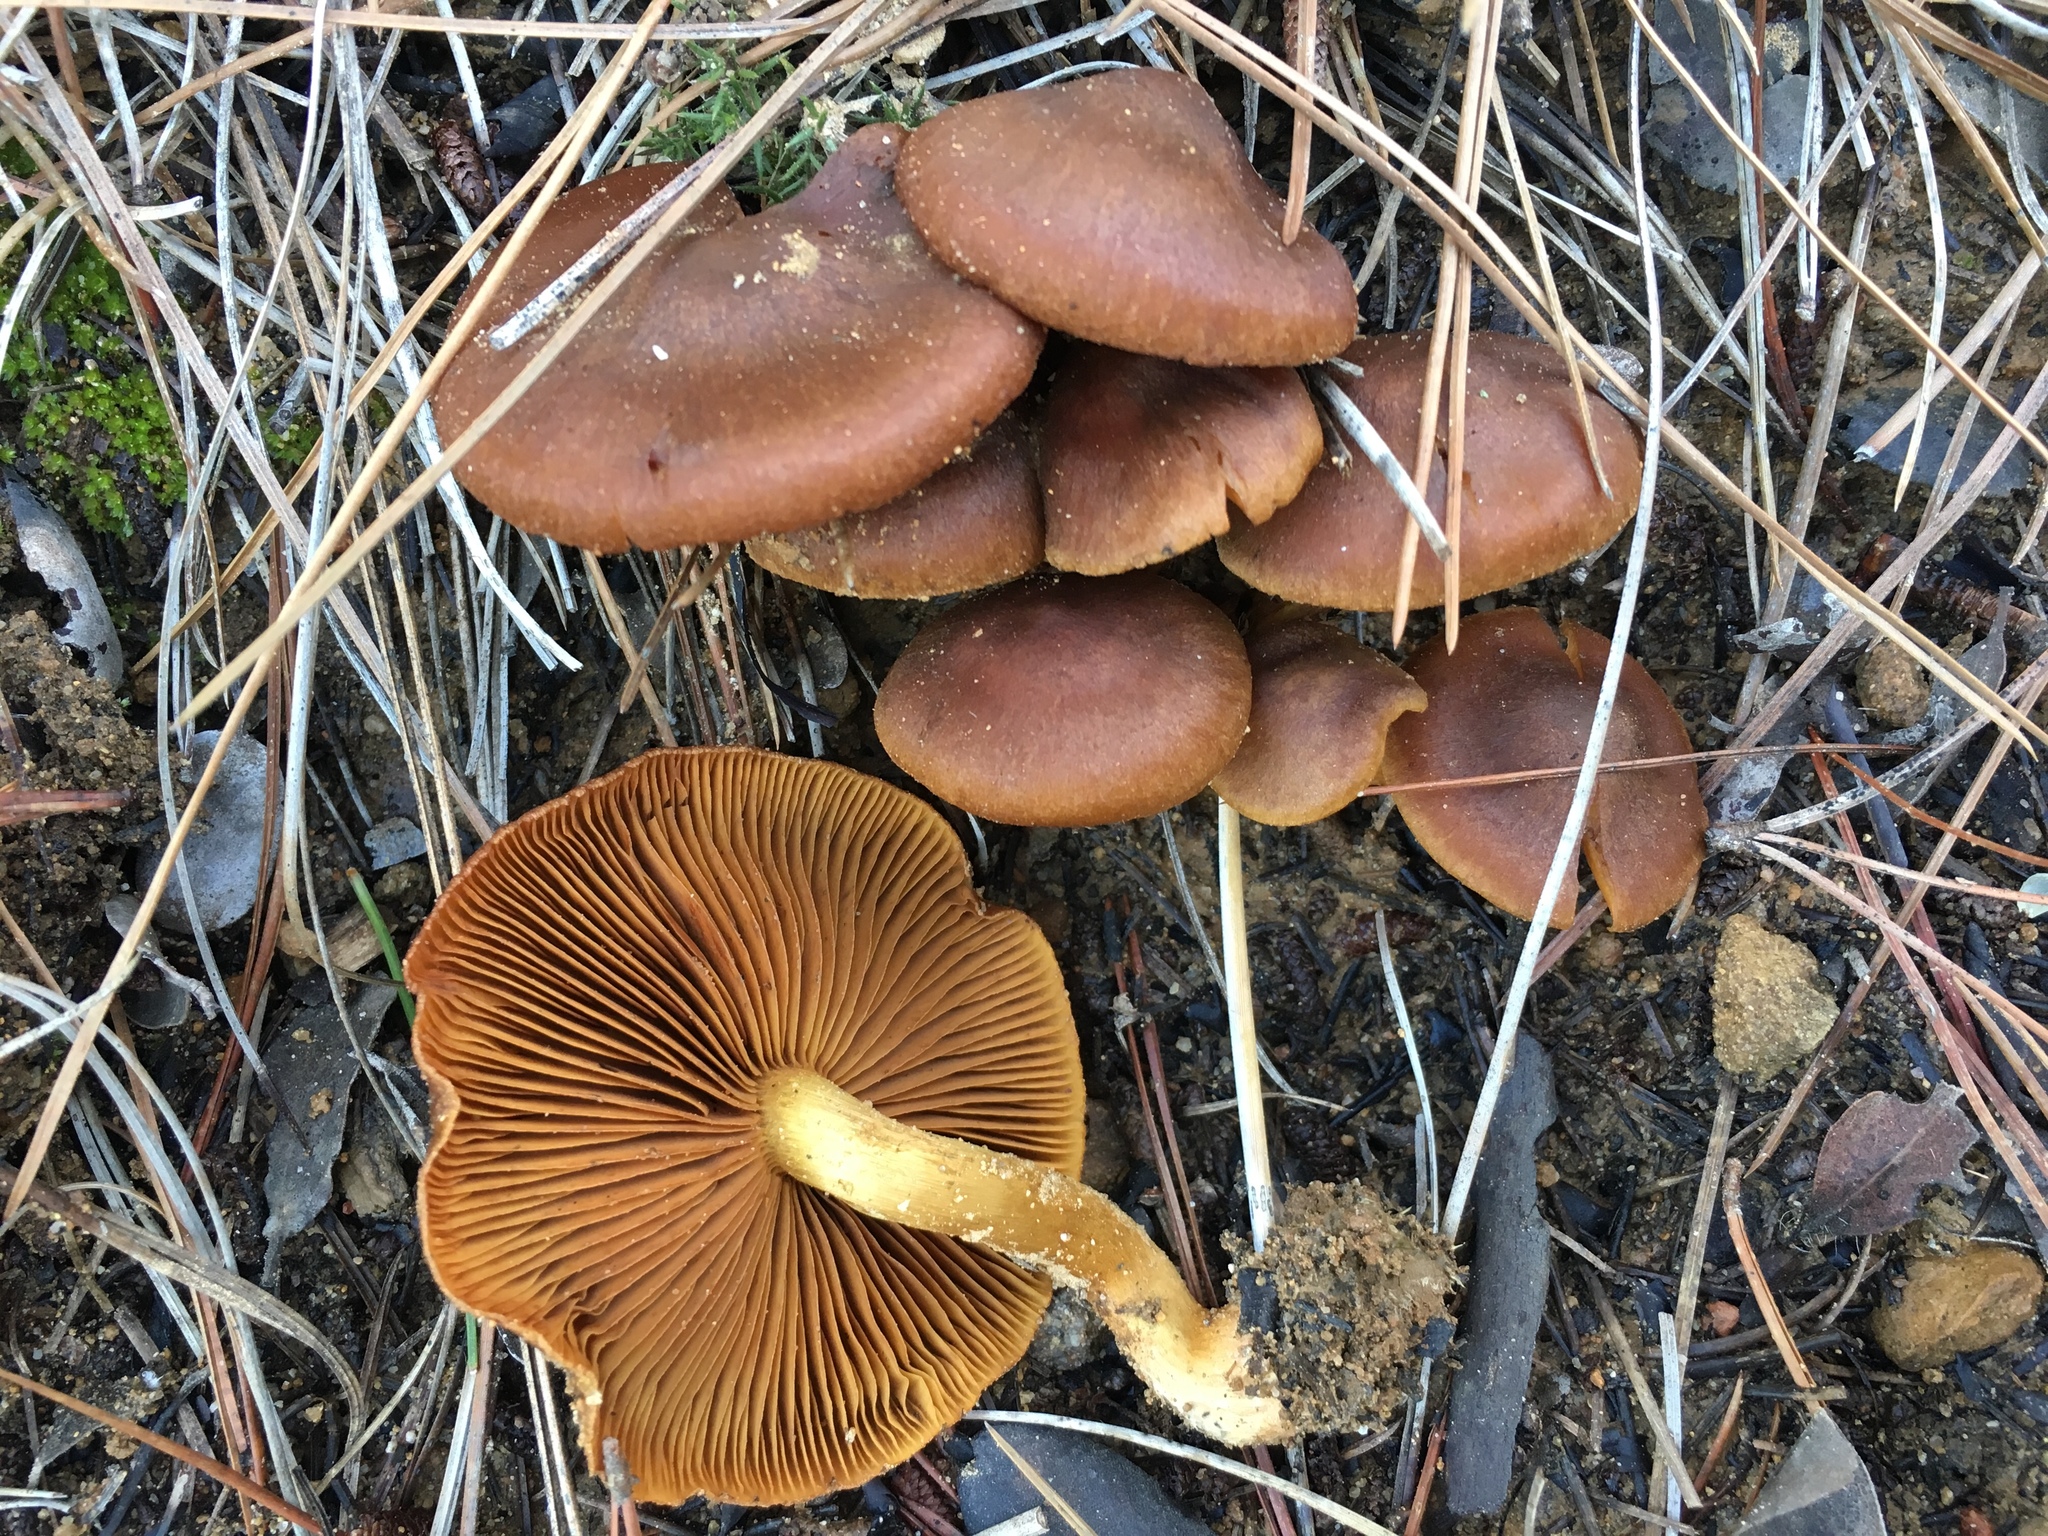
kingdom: Fungi
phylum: Basidiomycota
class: Agaricomycetes
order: Agaricales
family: Cortinariaceae
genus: Cortinarius
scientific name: Cortinarius thiersii
